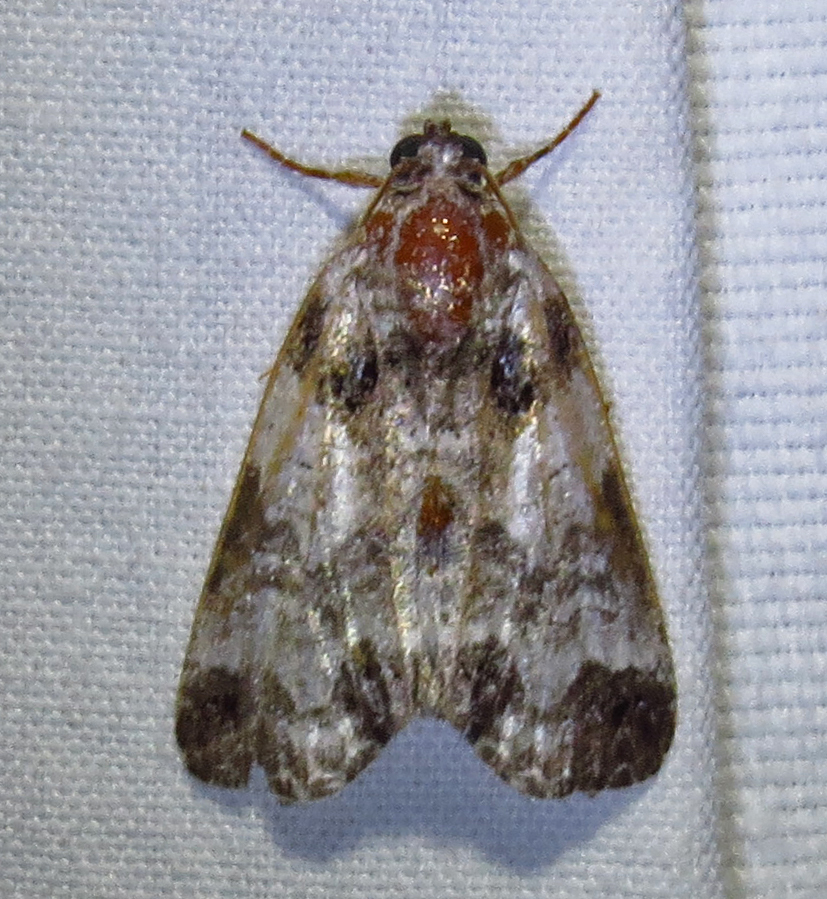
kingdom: Animalia
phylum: Arthropoda
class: Insecta
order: Lepidoptera
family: Noctuidae
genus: Cerma
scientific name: Cerma cerintha
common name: Tufted bird-dropping moth
